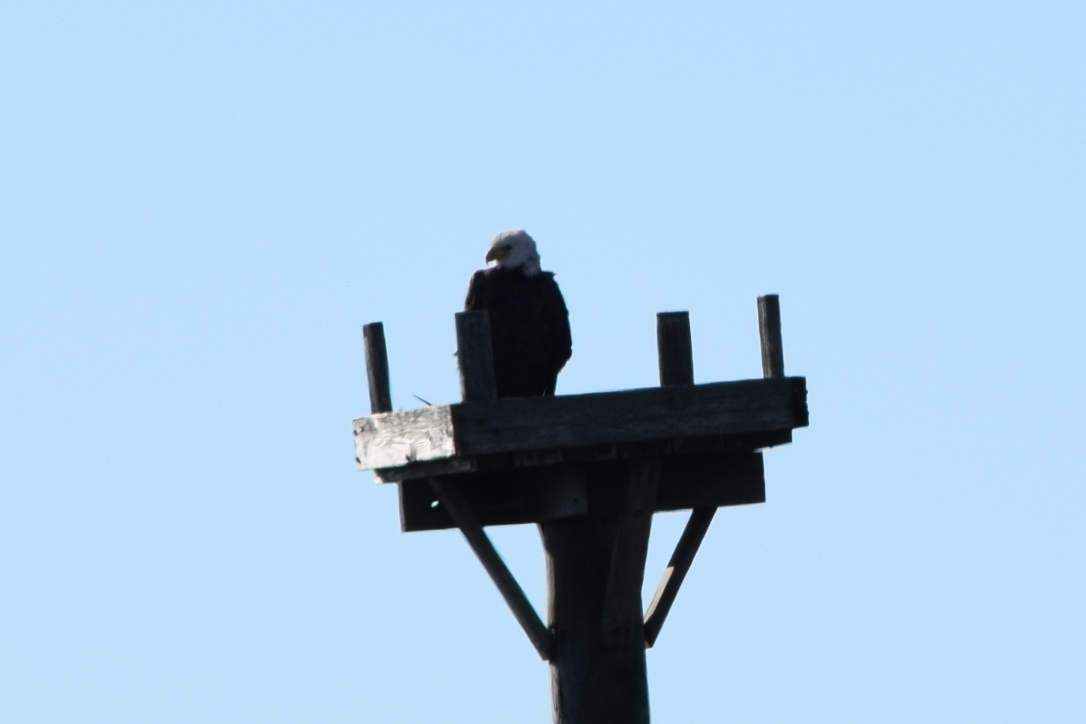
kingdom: Animalia
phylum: Chordata
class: Aves
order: Accipitriformes
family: Accipitridae
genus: Haliaeetus
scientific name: Haliaeetus leucocephalus
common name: Bald eagle
